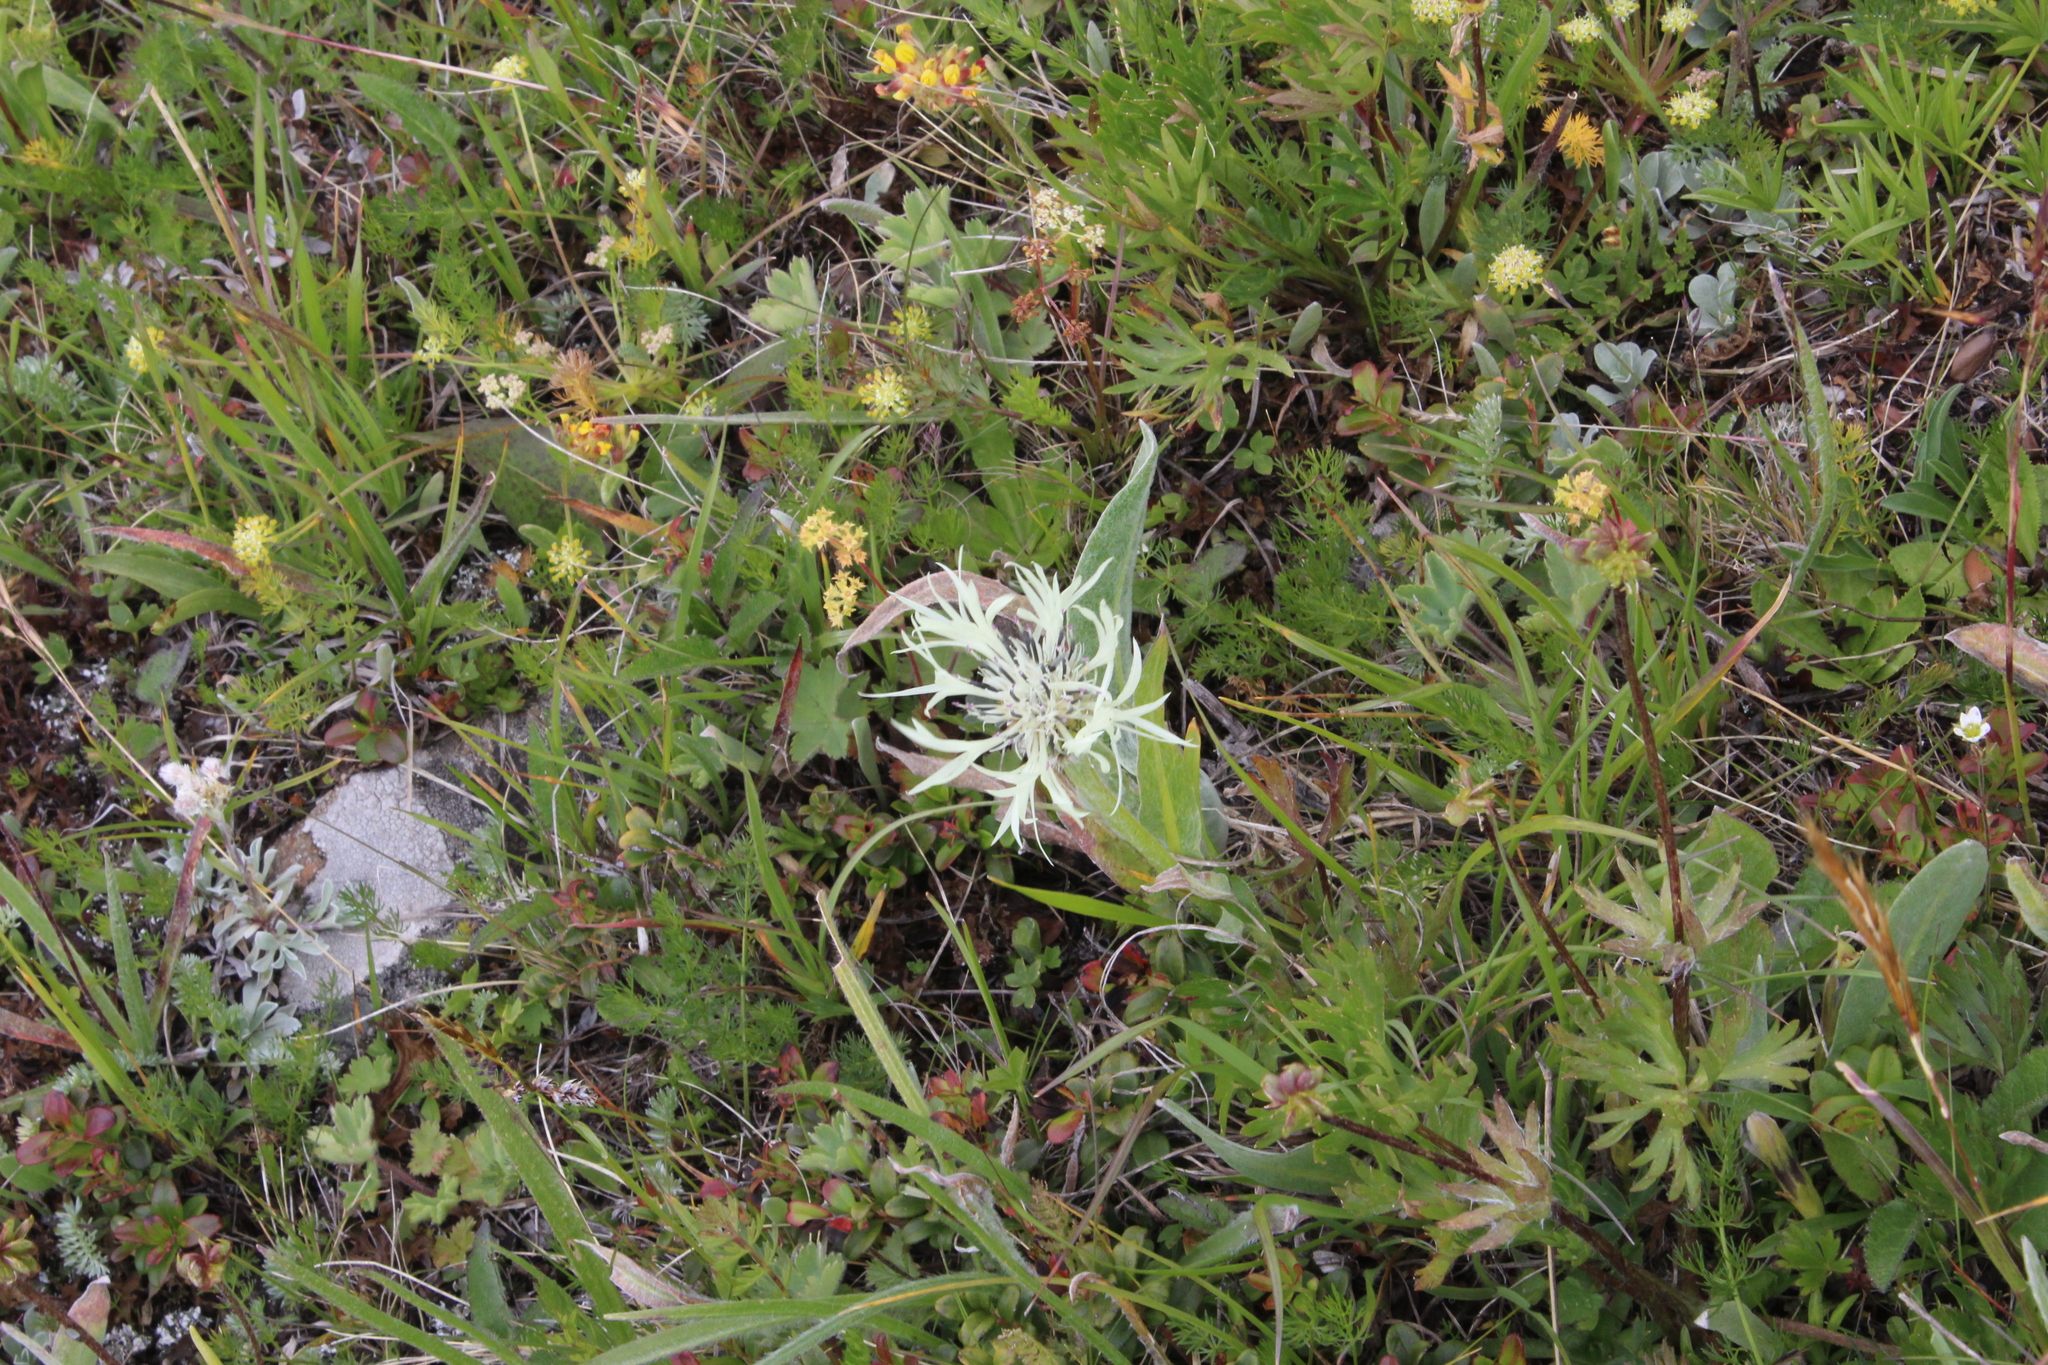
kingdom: Plantae
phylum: Tracheophyta
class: Magnoliopsida
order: Asterales
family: Asteraceae
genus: Centaurea
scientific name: Centaurea cheiranthifolia
